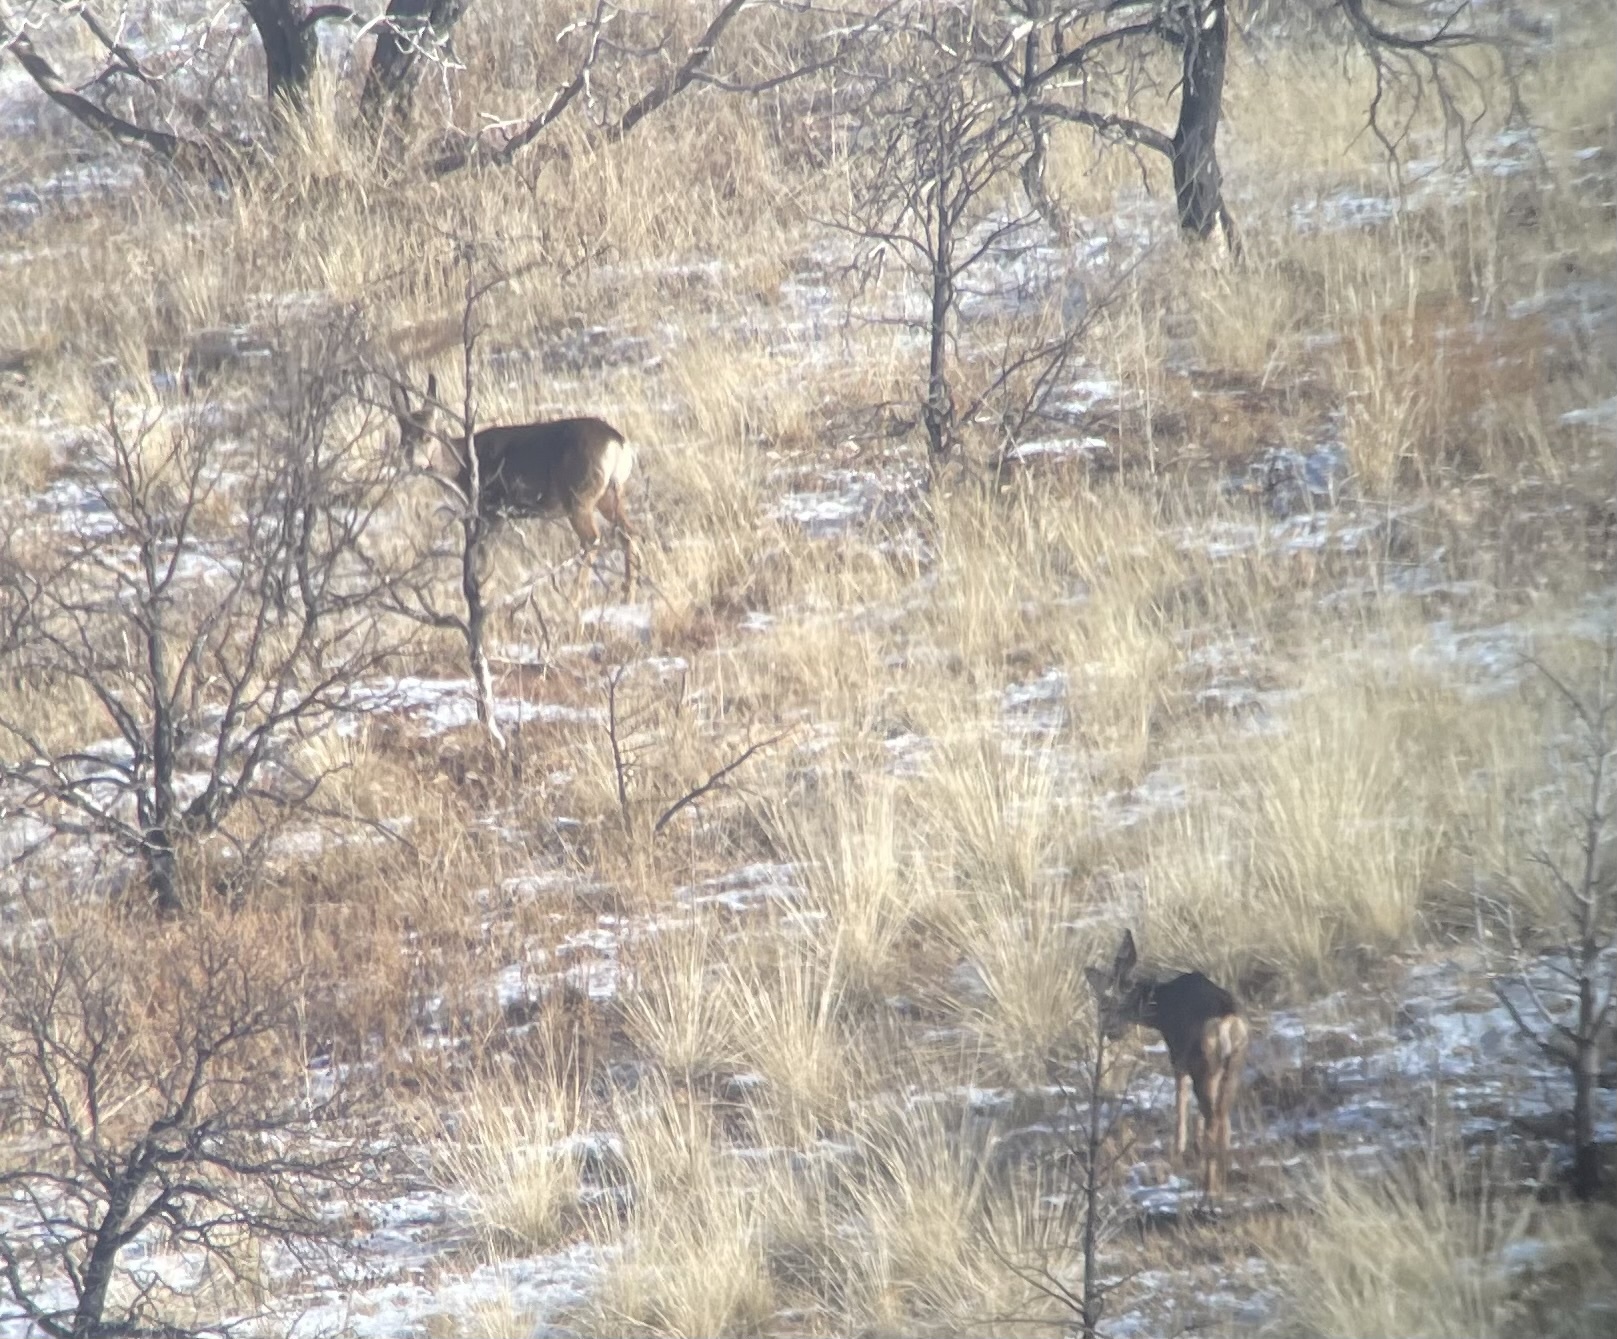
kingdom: Animalia
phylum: Chordata
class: Mammalia
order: Artiodactyla
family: Cervidae
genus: Odocoileus
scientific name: Odocoileus hemionus
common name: Mule deer
